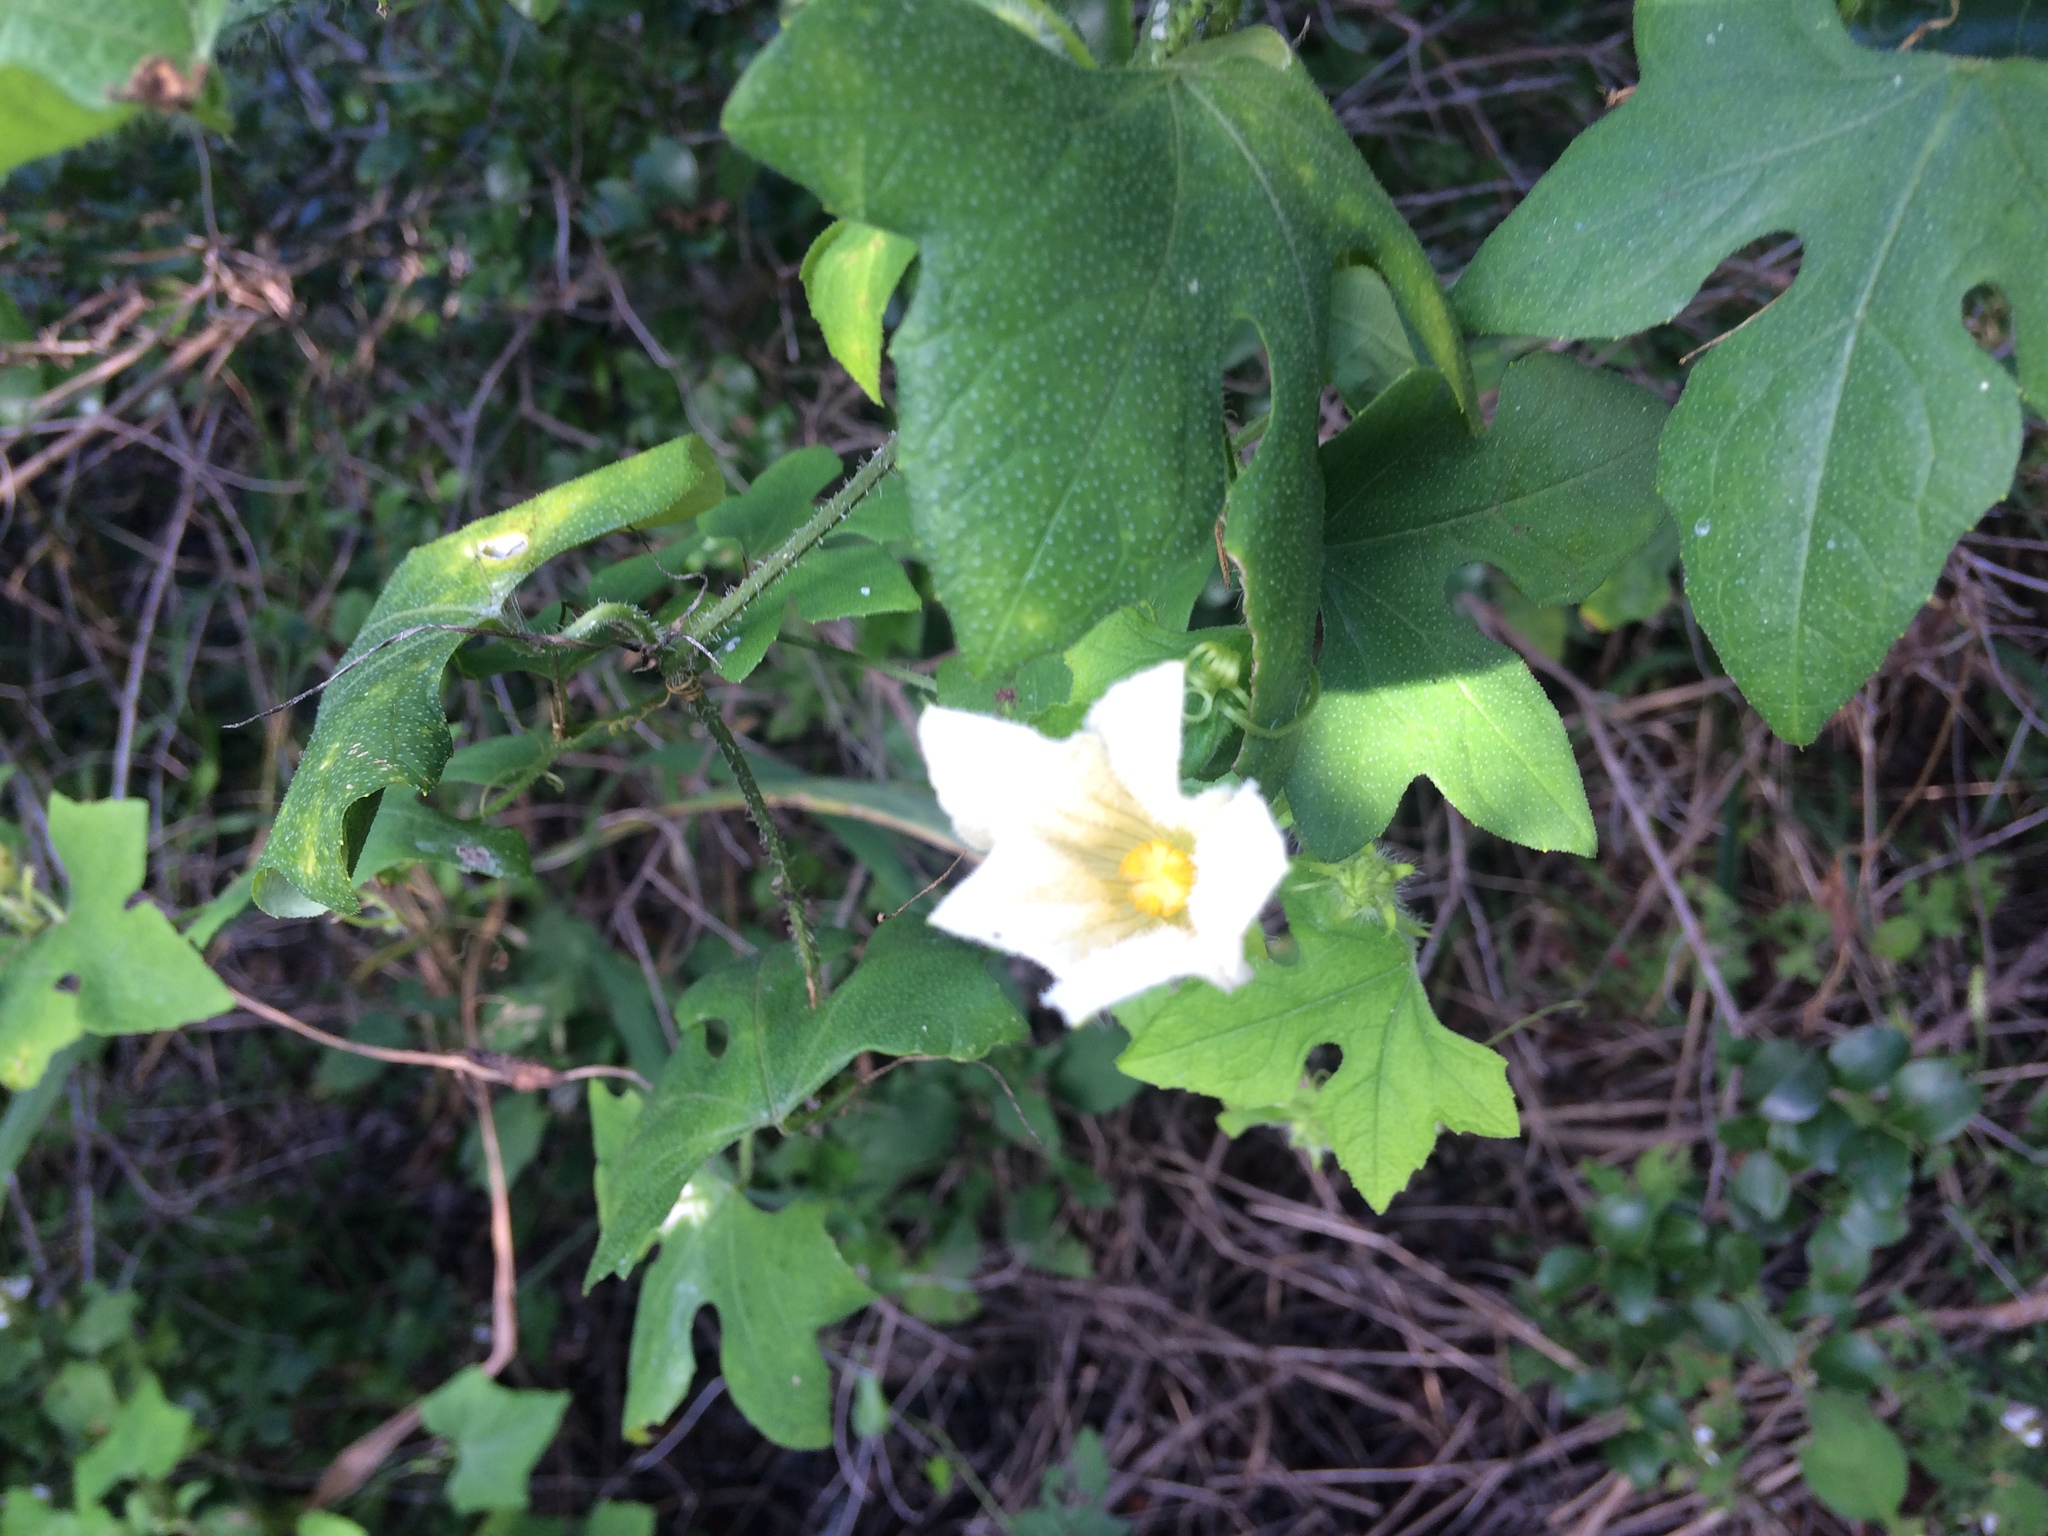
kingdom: Plantae
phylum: Tracheophyta
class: Magnoliopsida
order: Cucurbitales
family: Cucurbitaceae
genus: Coccinia
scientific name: Coccinia rehmannii
